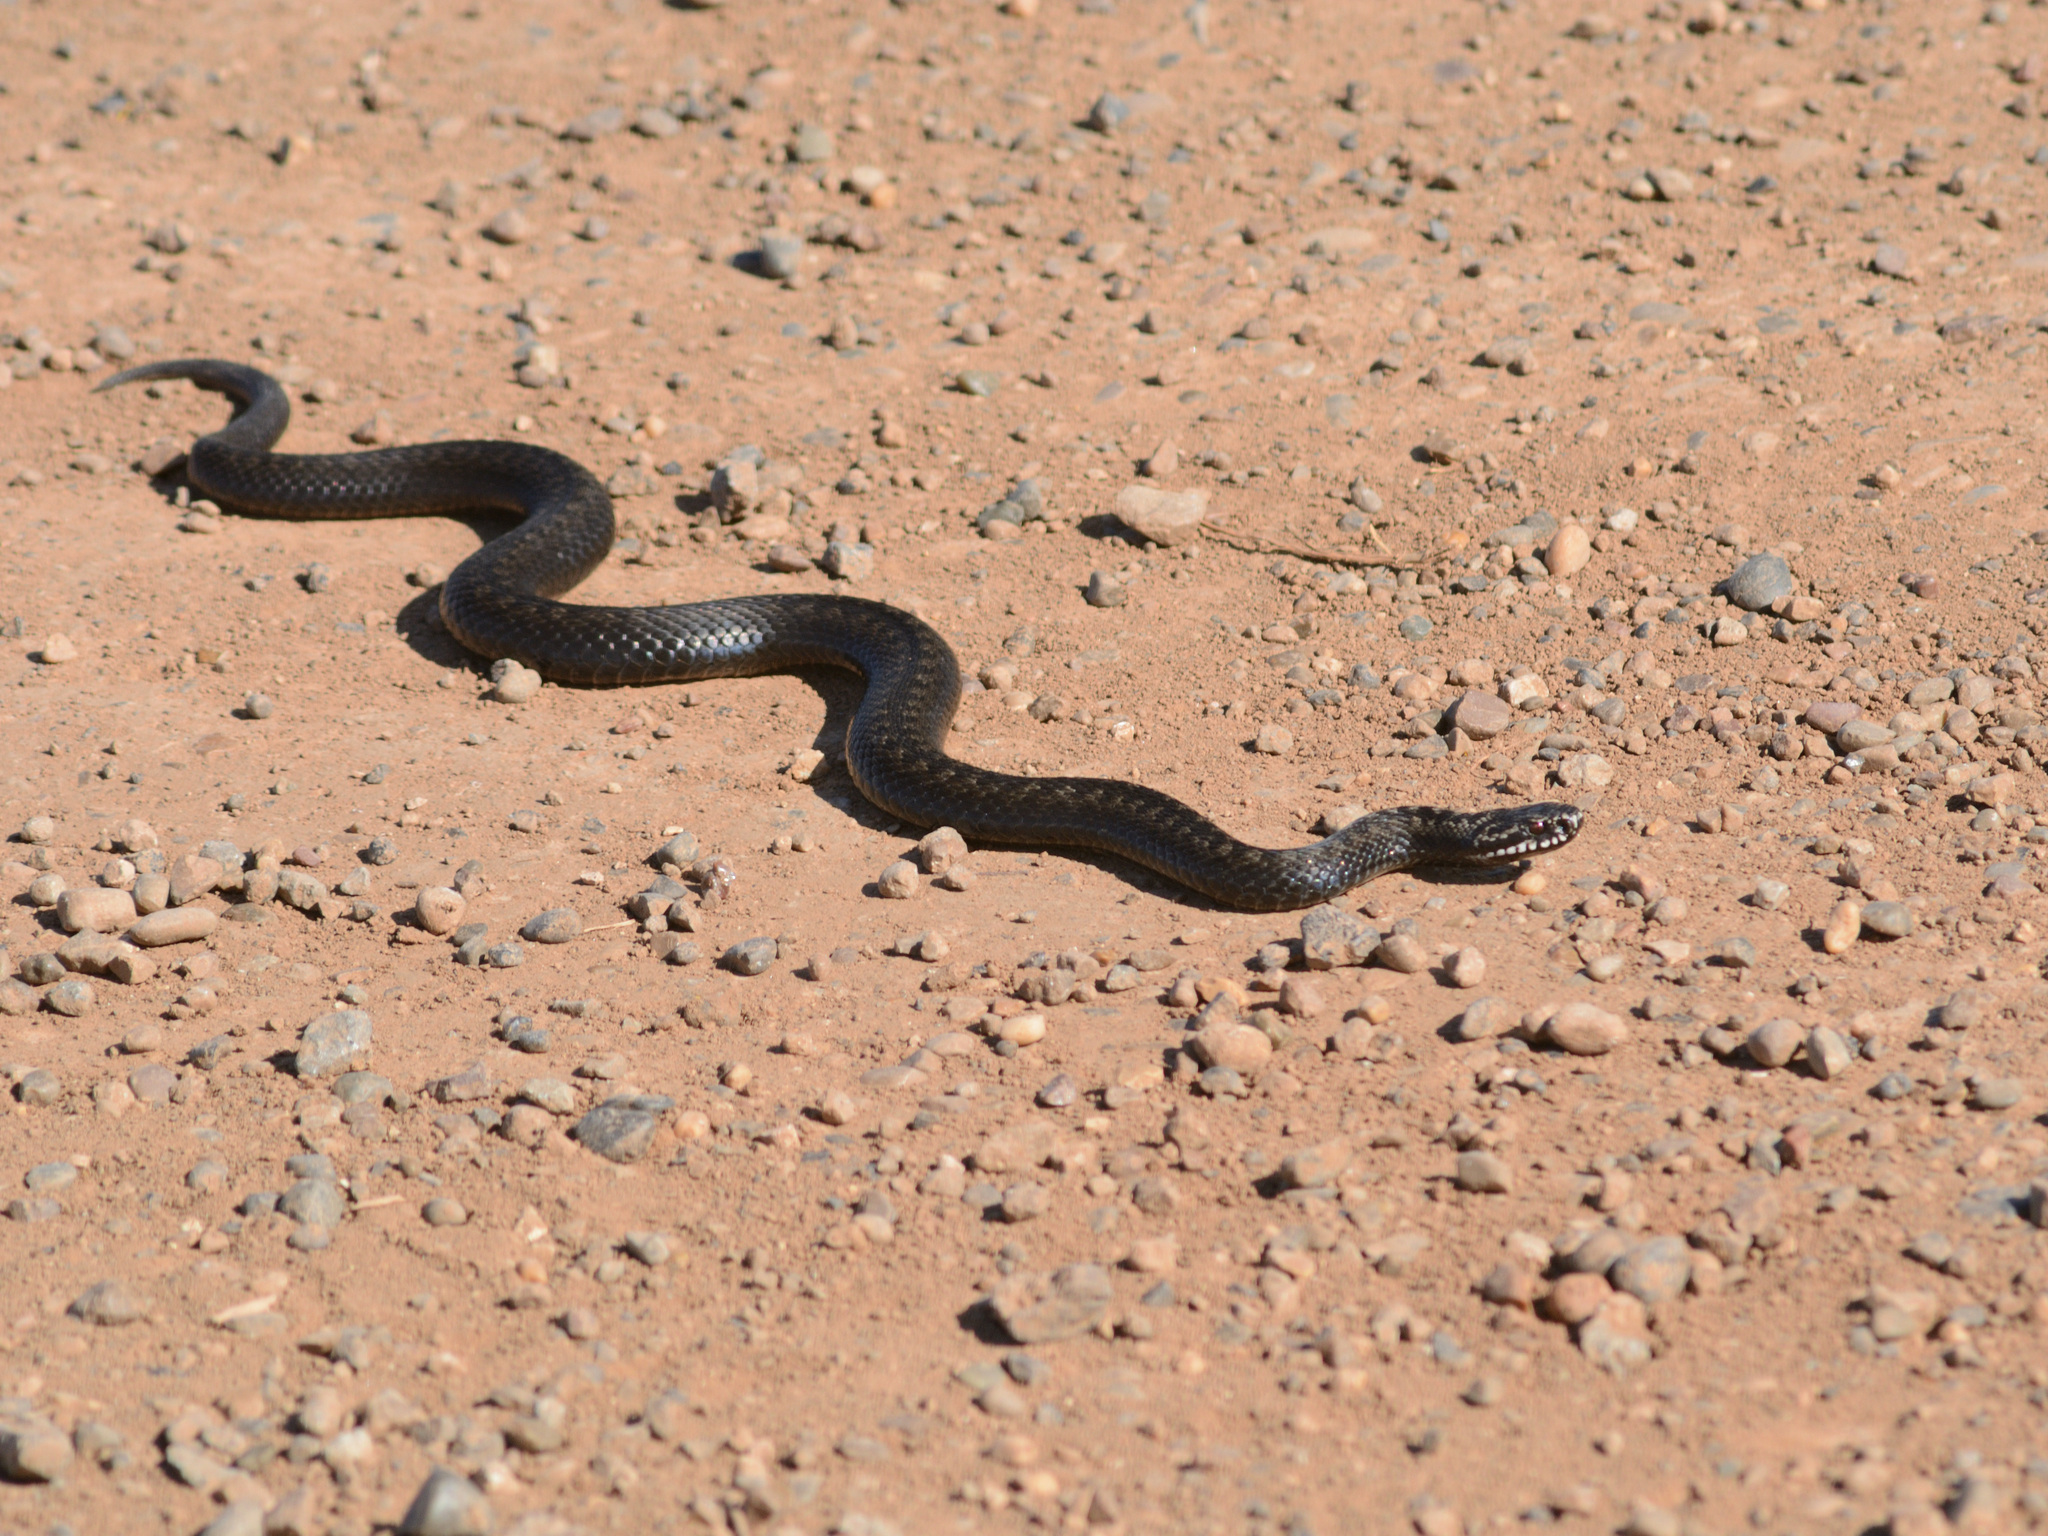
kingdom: Animalia
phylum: Chordata
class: Squamata
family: Viperidae
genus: Vipera
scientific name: Vipera berus
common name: Adder
